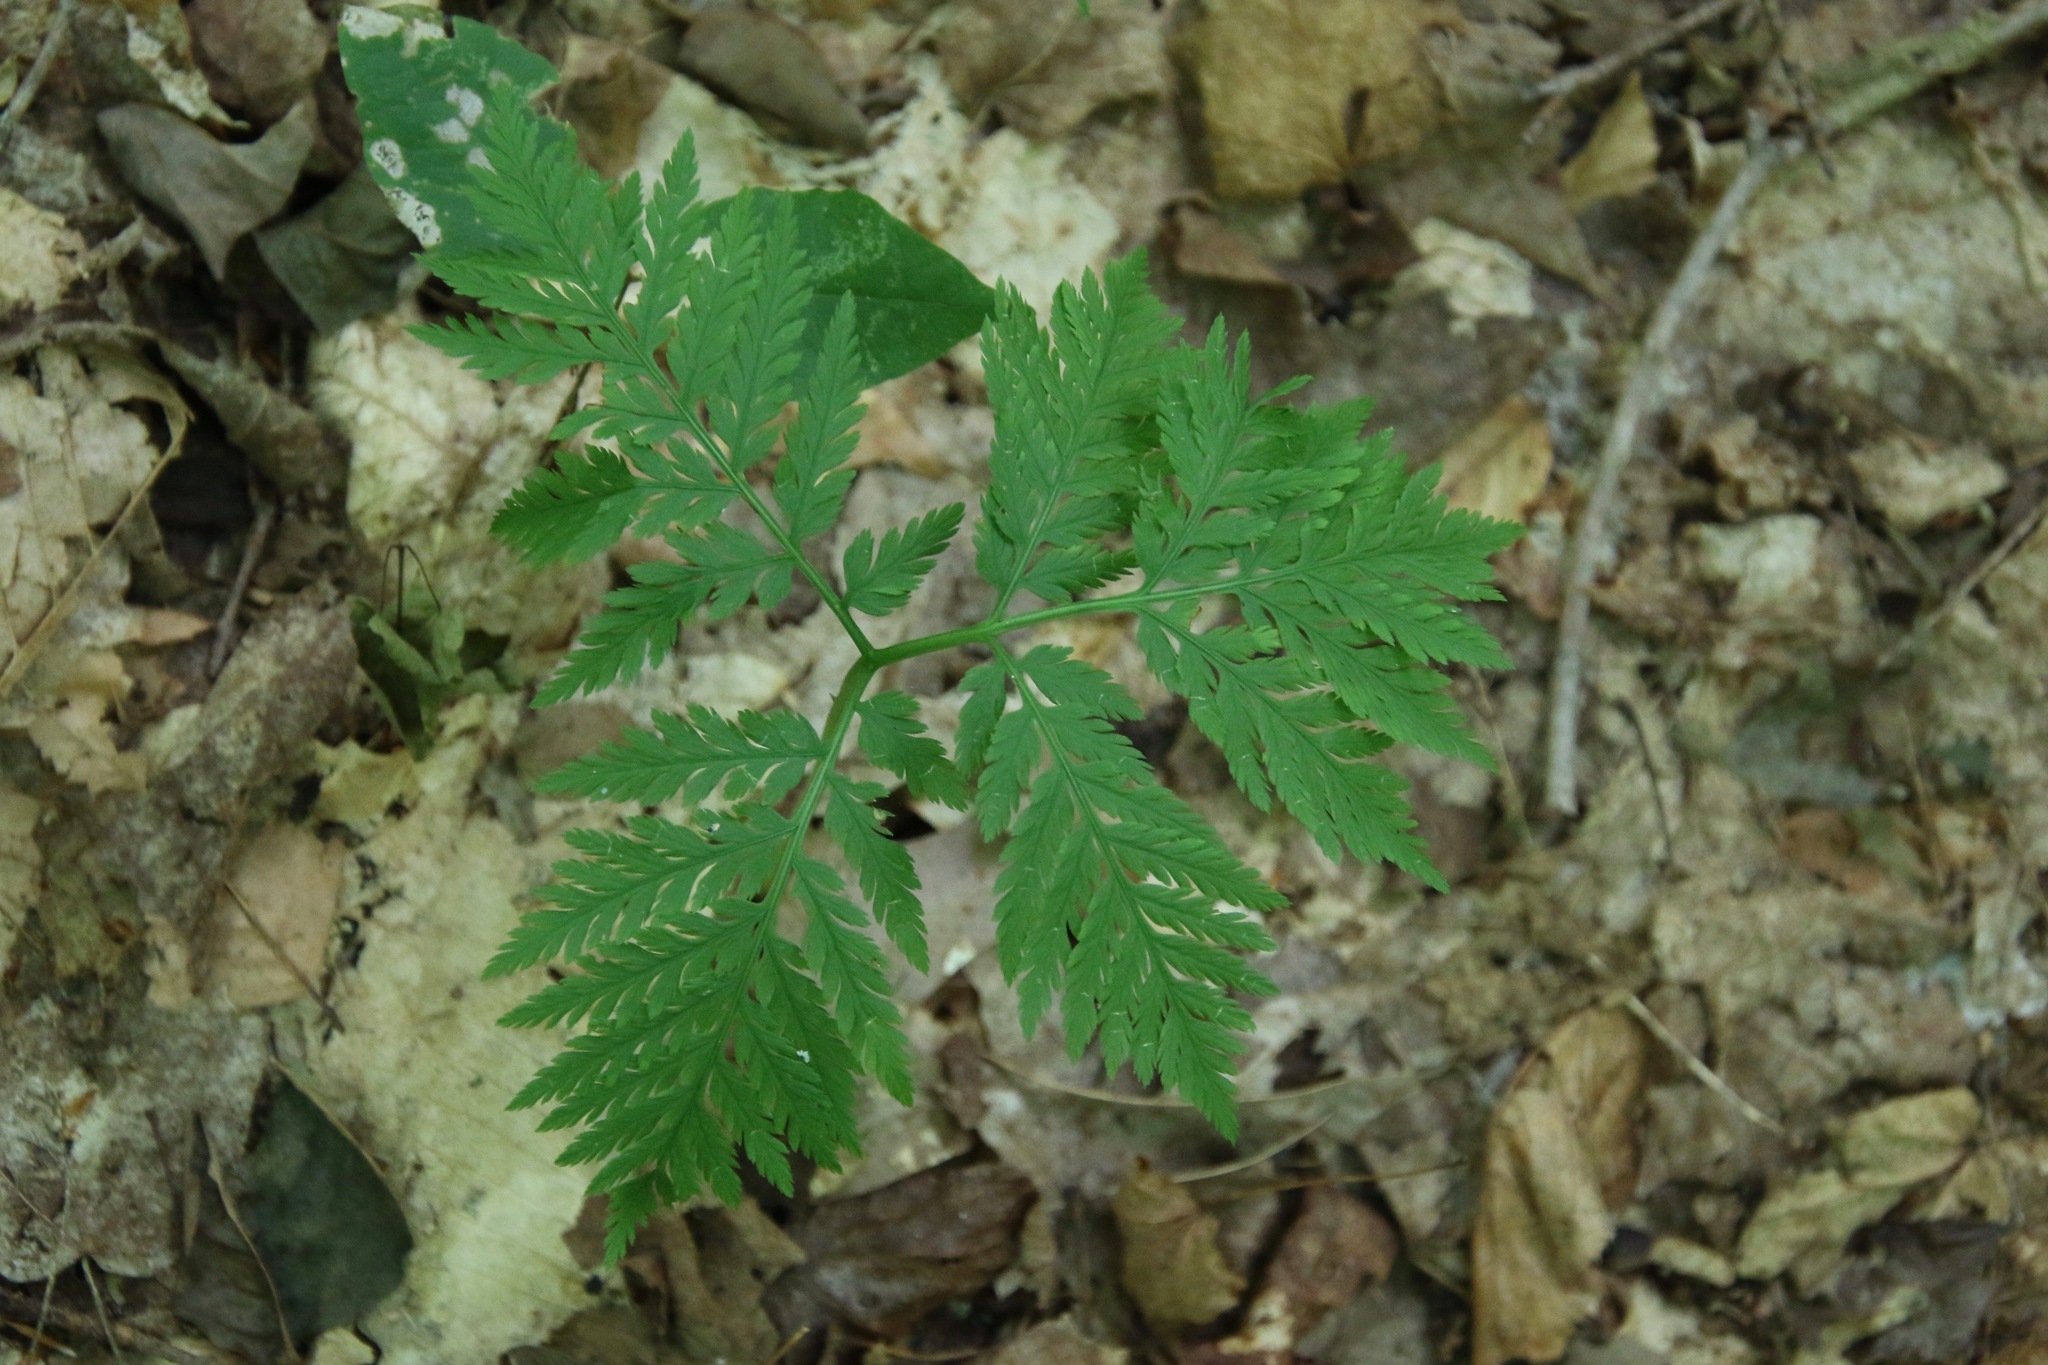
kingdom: Plantae
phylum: Tracheophyta
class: Polypodiopsida
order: Ophioglossales
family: Ophioglossaceae
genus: Botrypus
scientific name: Botrypus virginianus
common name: Common grapefern
